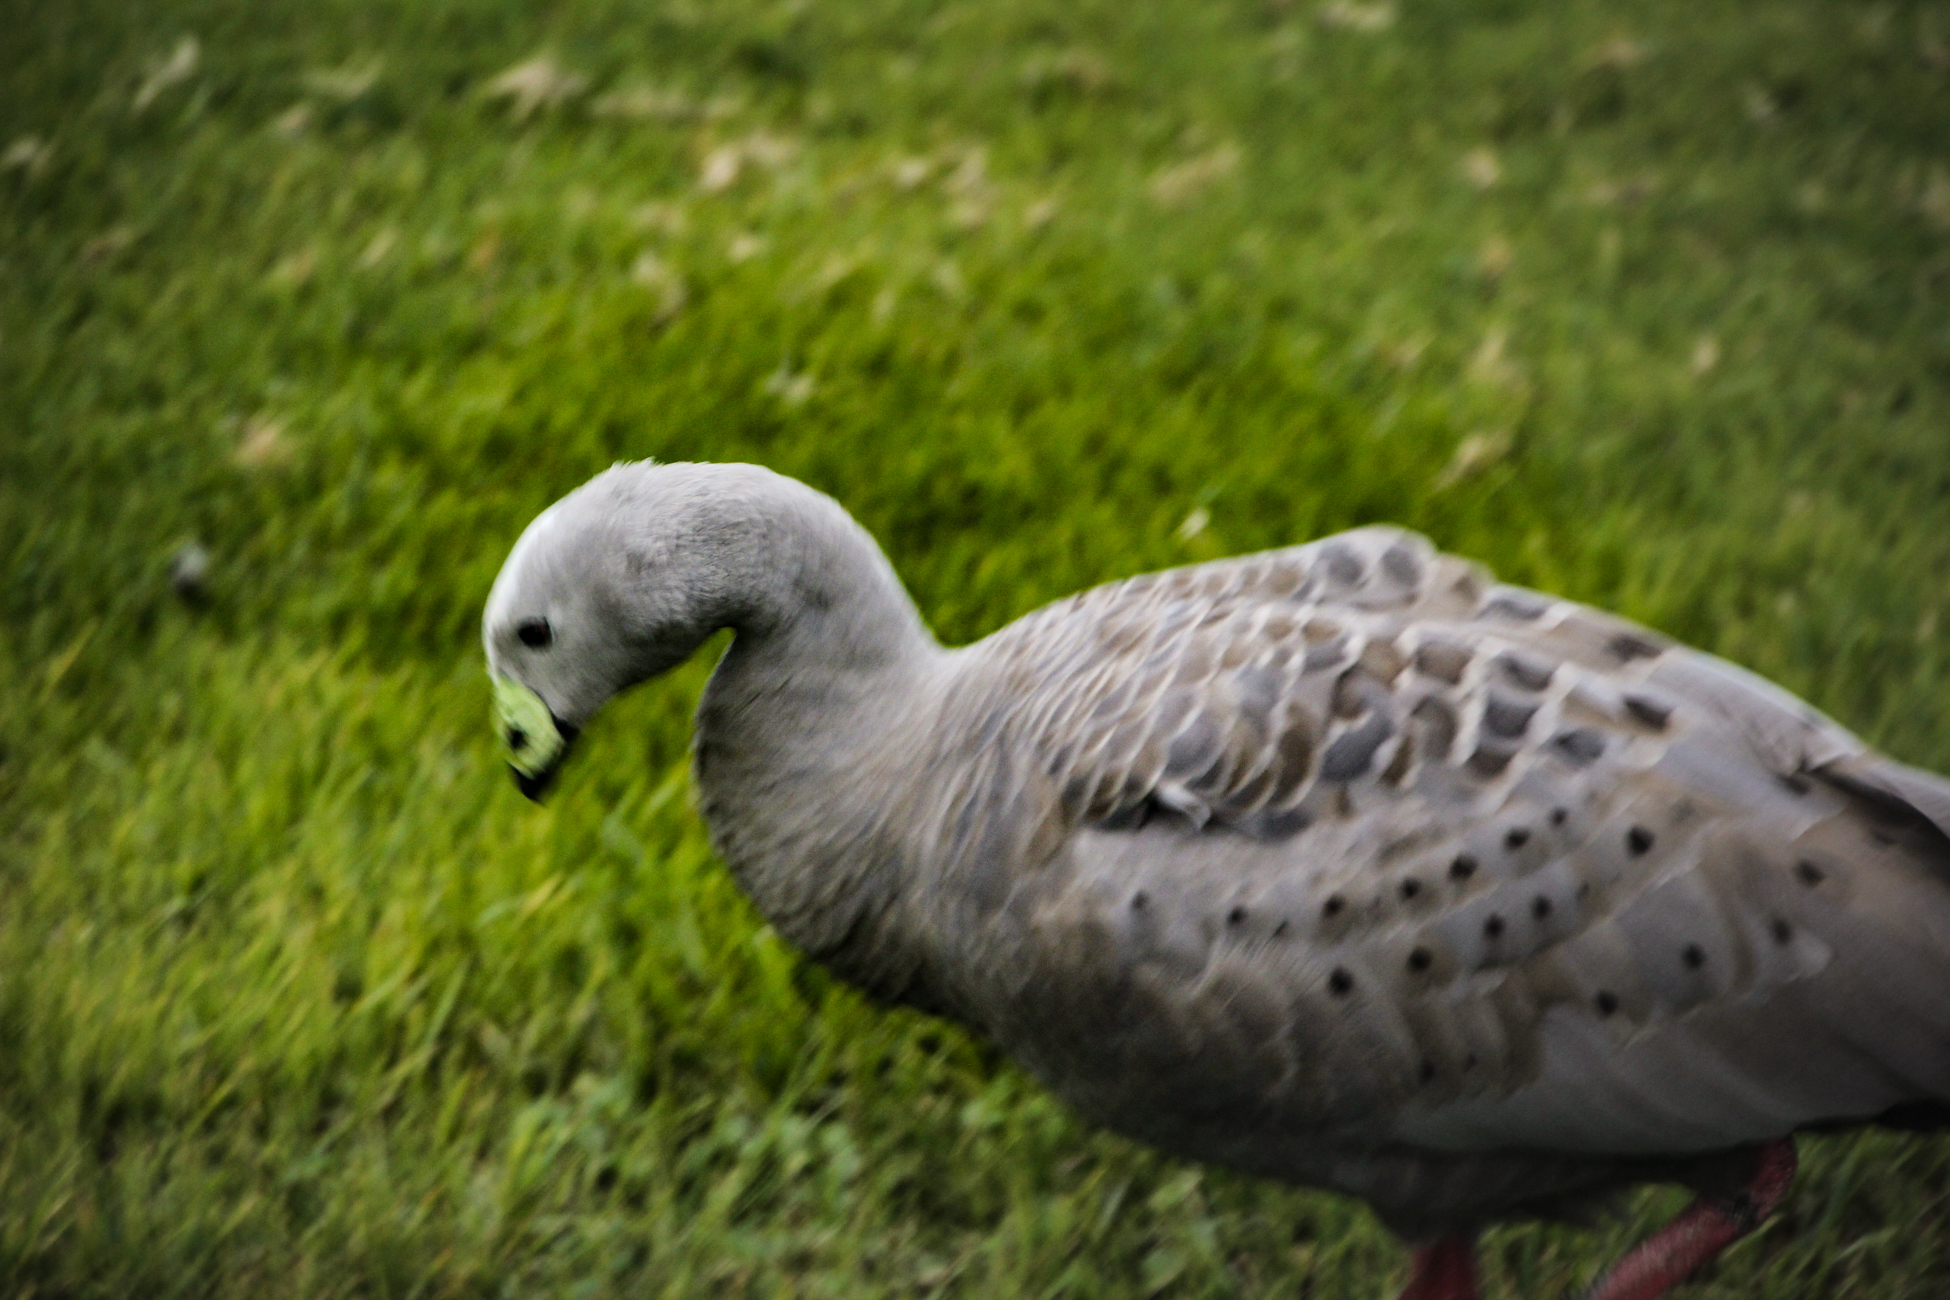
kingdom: Animalia
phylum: Chordata
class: Aves
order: Anseriformes
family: Anatidae
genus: Cereopsis
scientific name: Cereopsis novaehollandiae
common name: Cape barren goose
